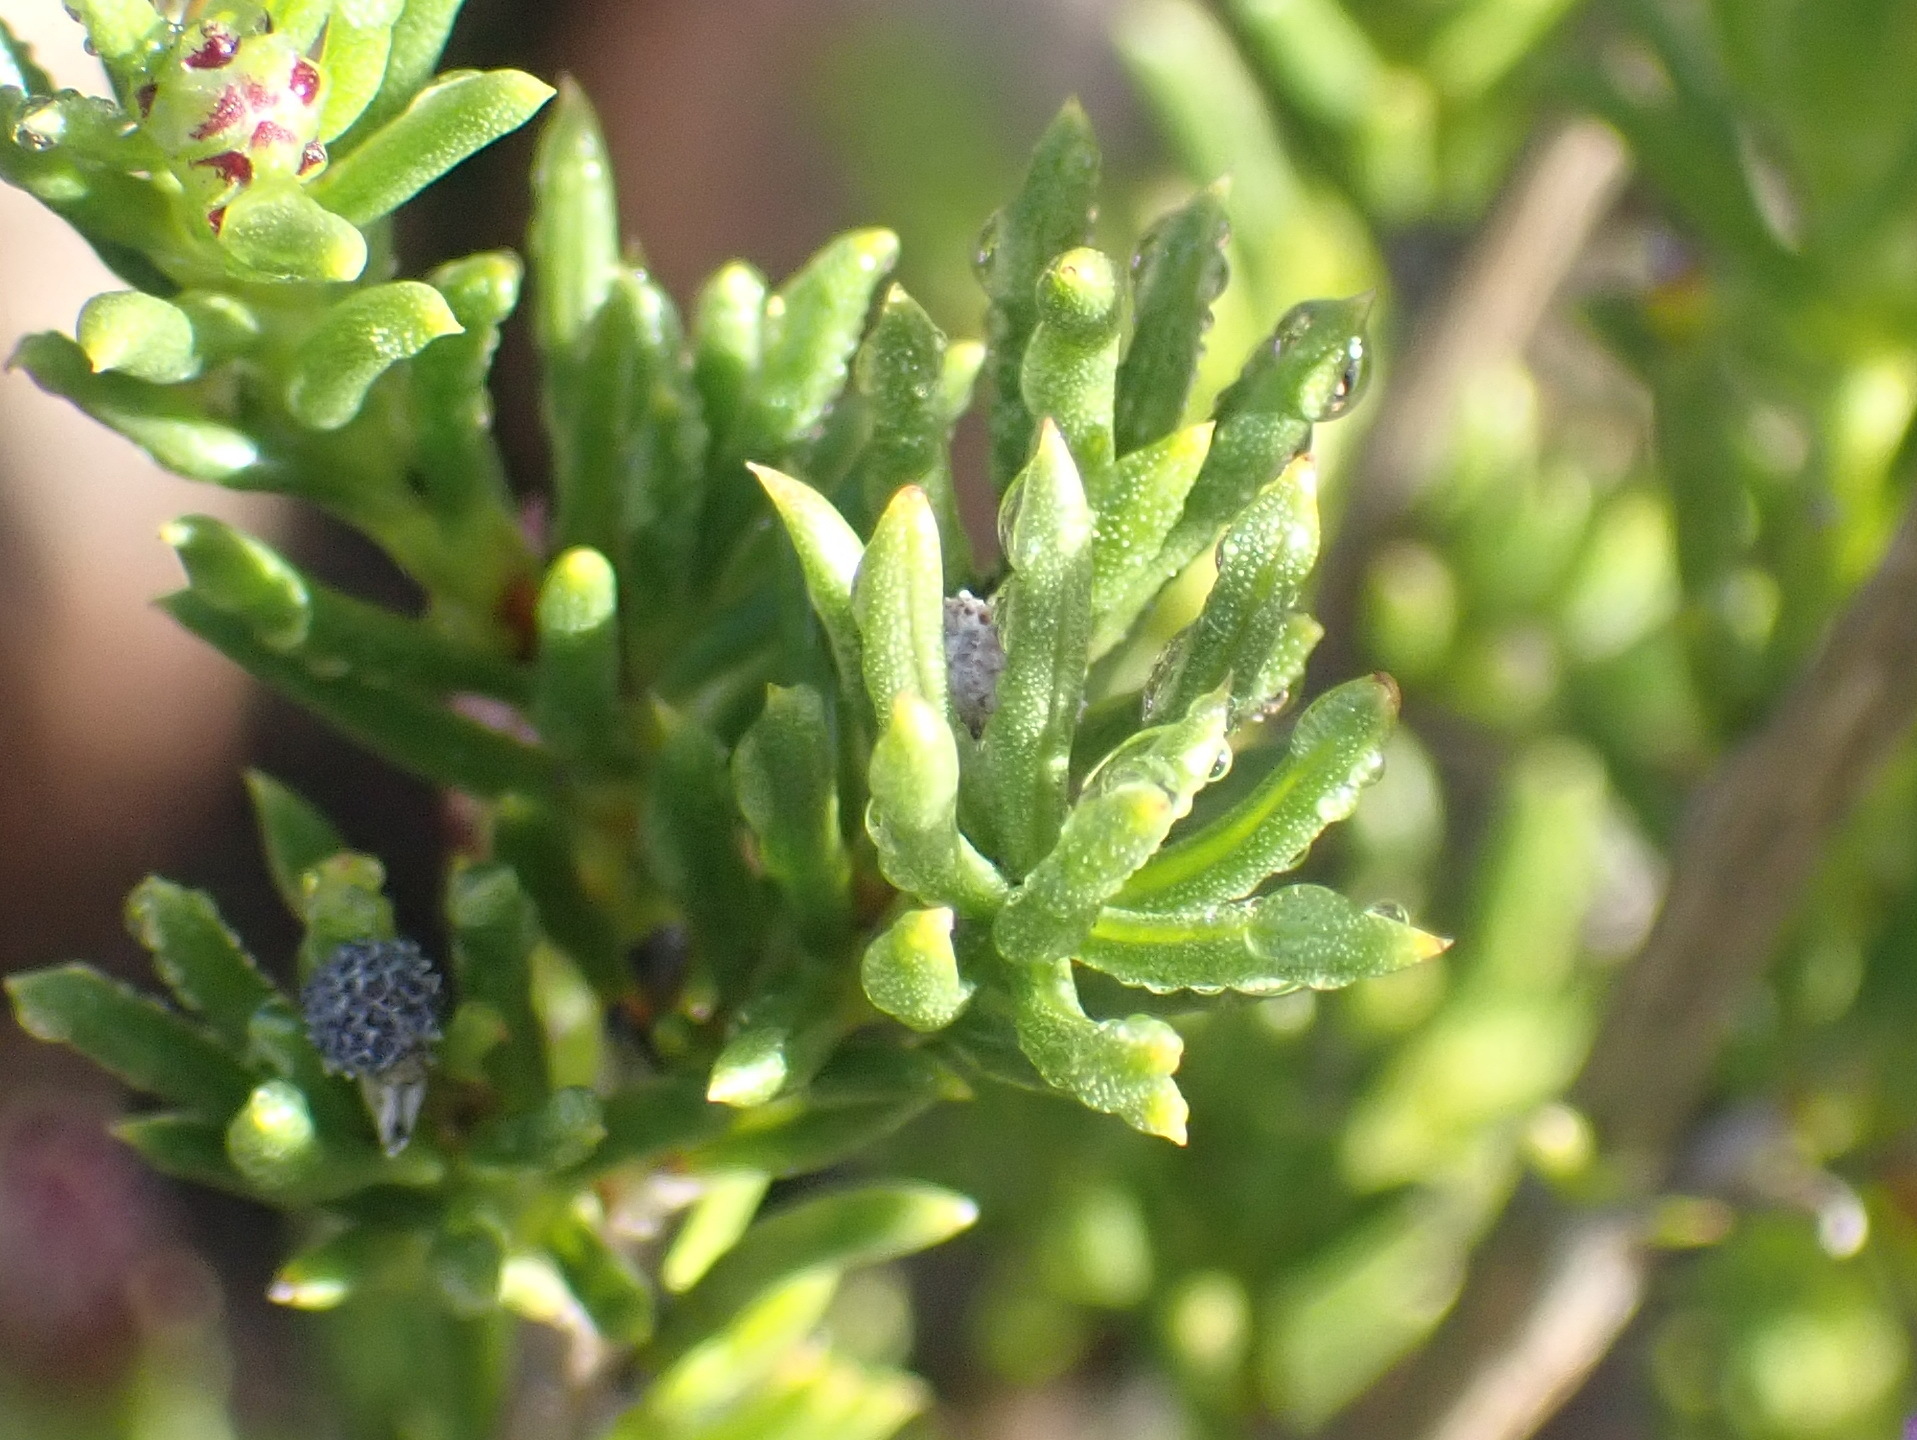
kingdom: Plantae
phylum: Tracheophyta
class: Magnoliopsida
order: Asterales
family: Asteraceae
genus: Felicia
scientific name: Felicia filifolia
